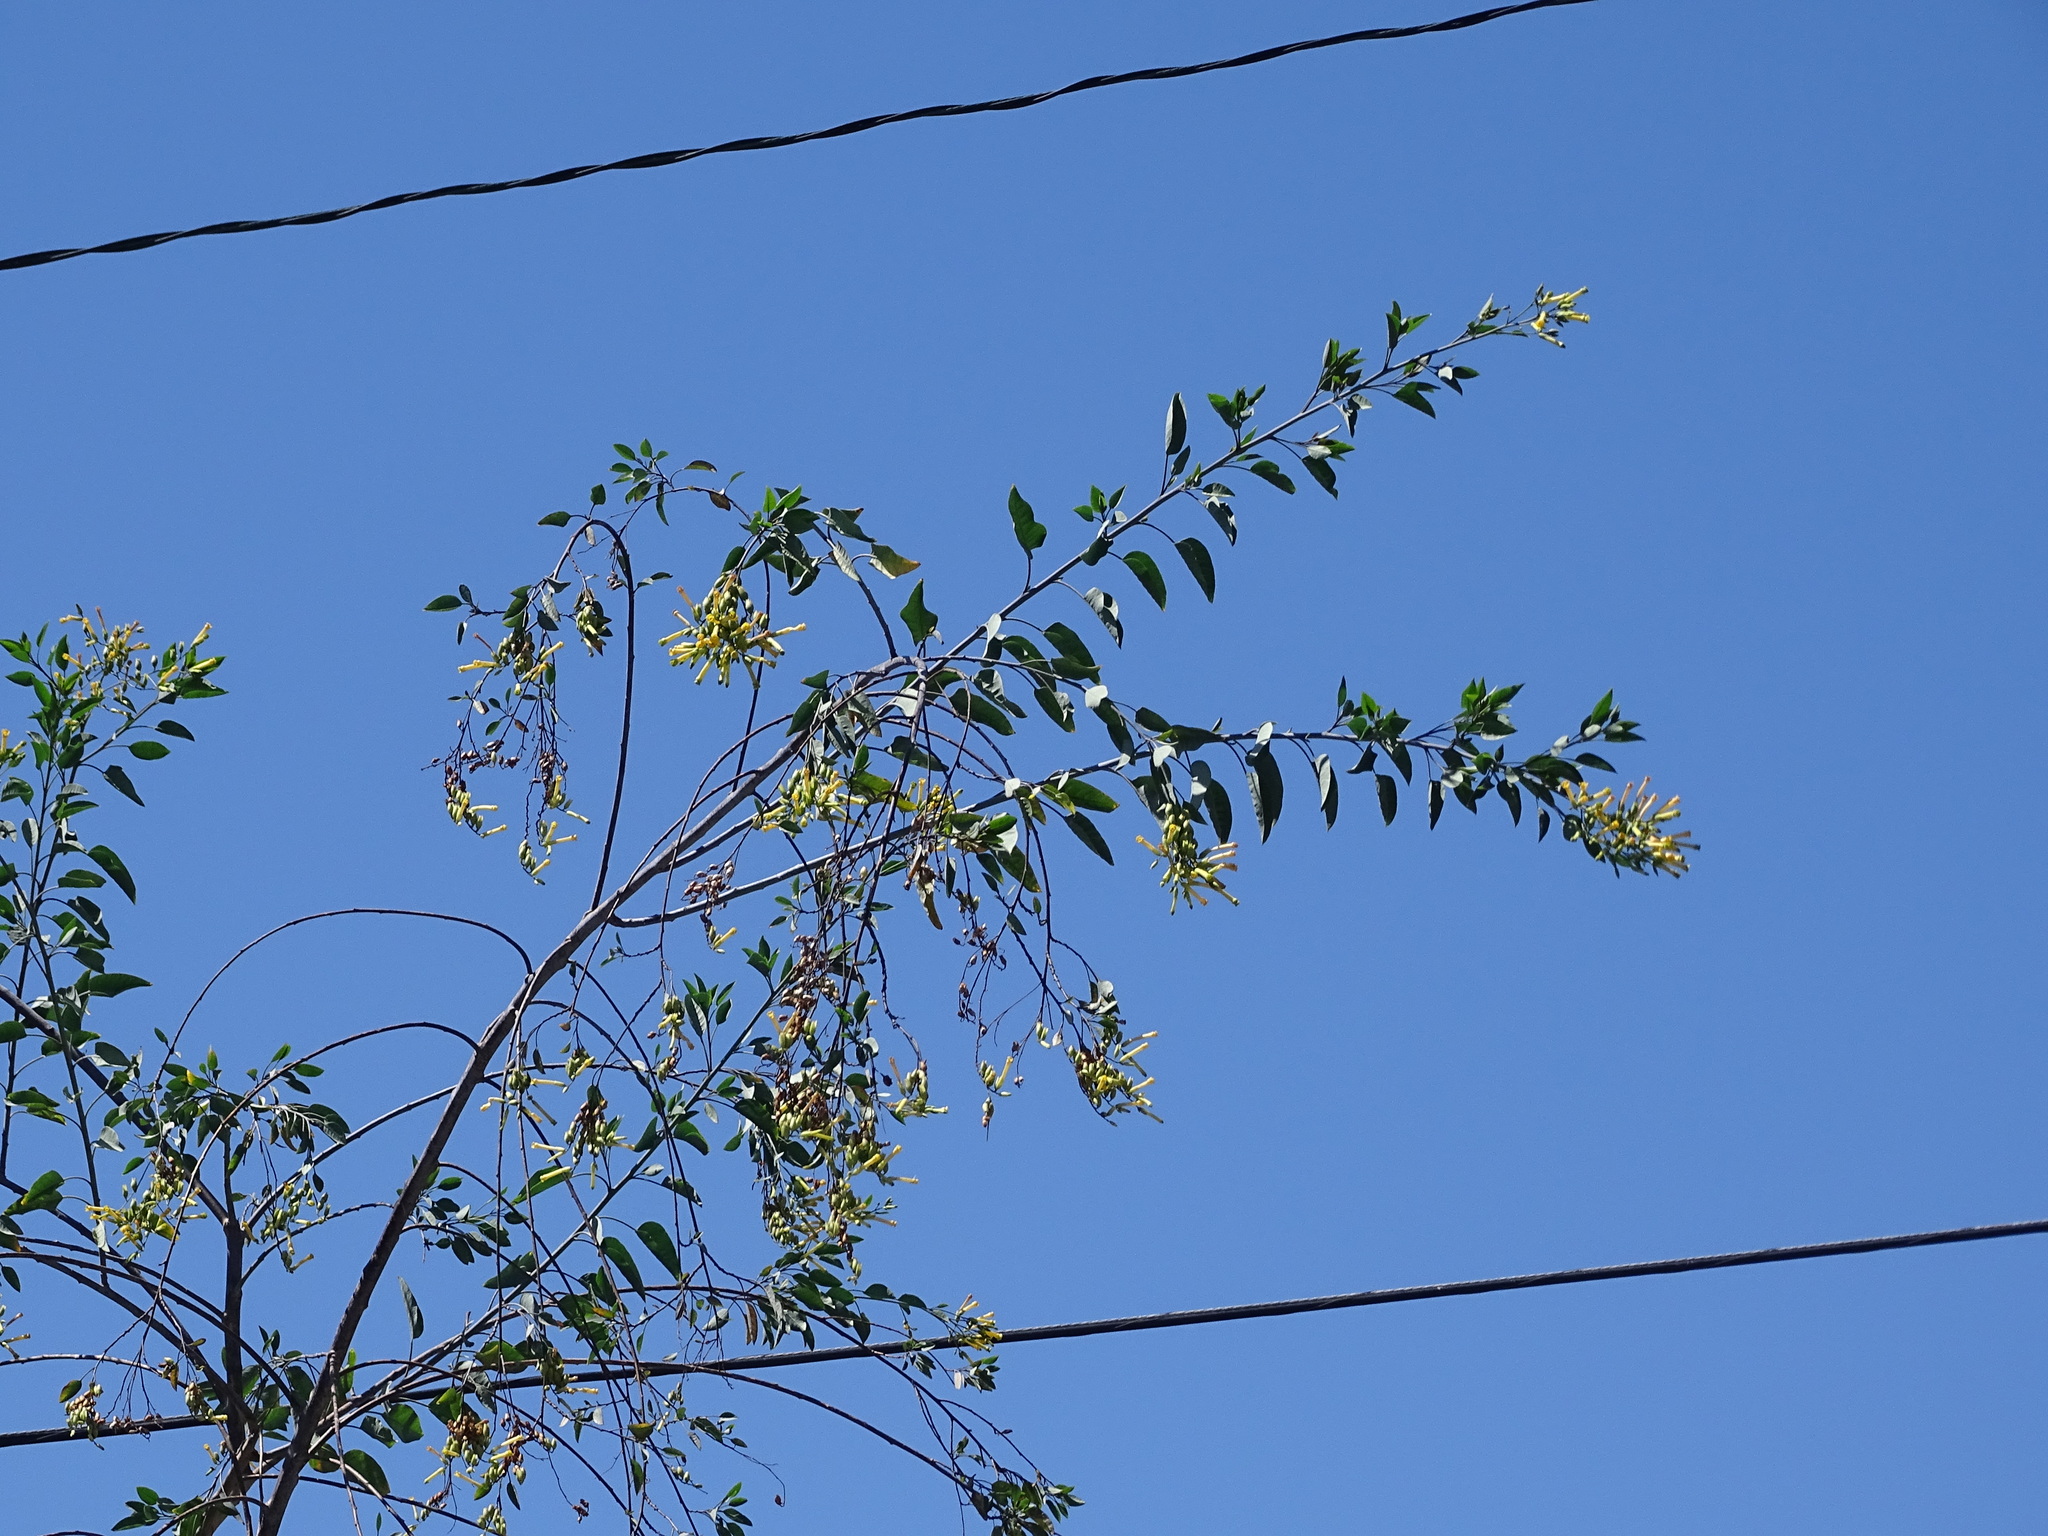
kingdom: Plantae
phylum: Tracheophyta
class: Magnoliopsida
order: Solanales
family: Solanaceae
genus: Nicotiana
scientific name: Nicotiana glauca
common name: Tree tobacco
